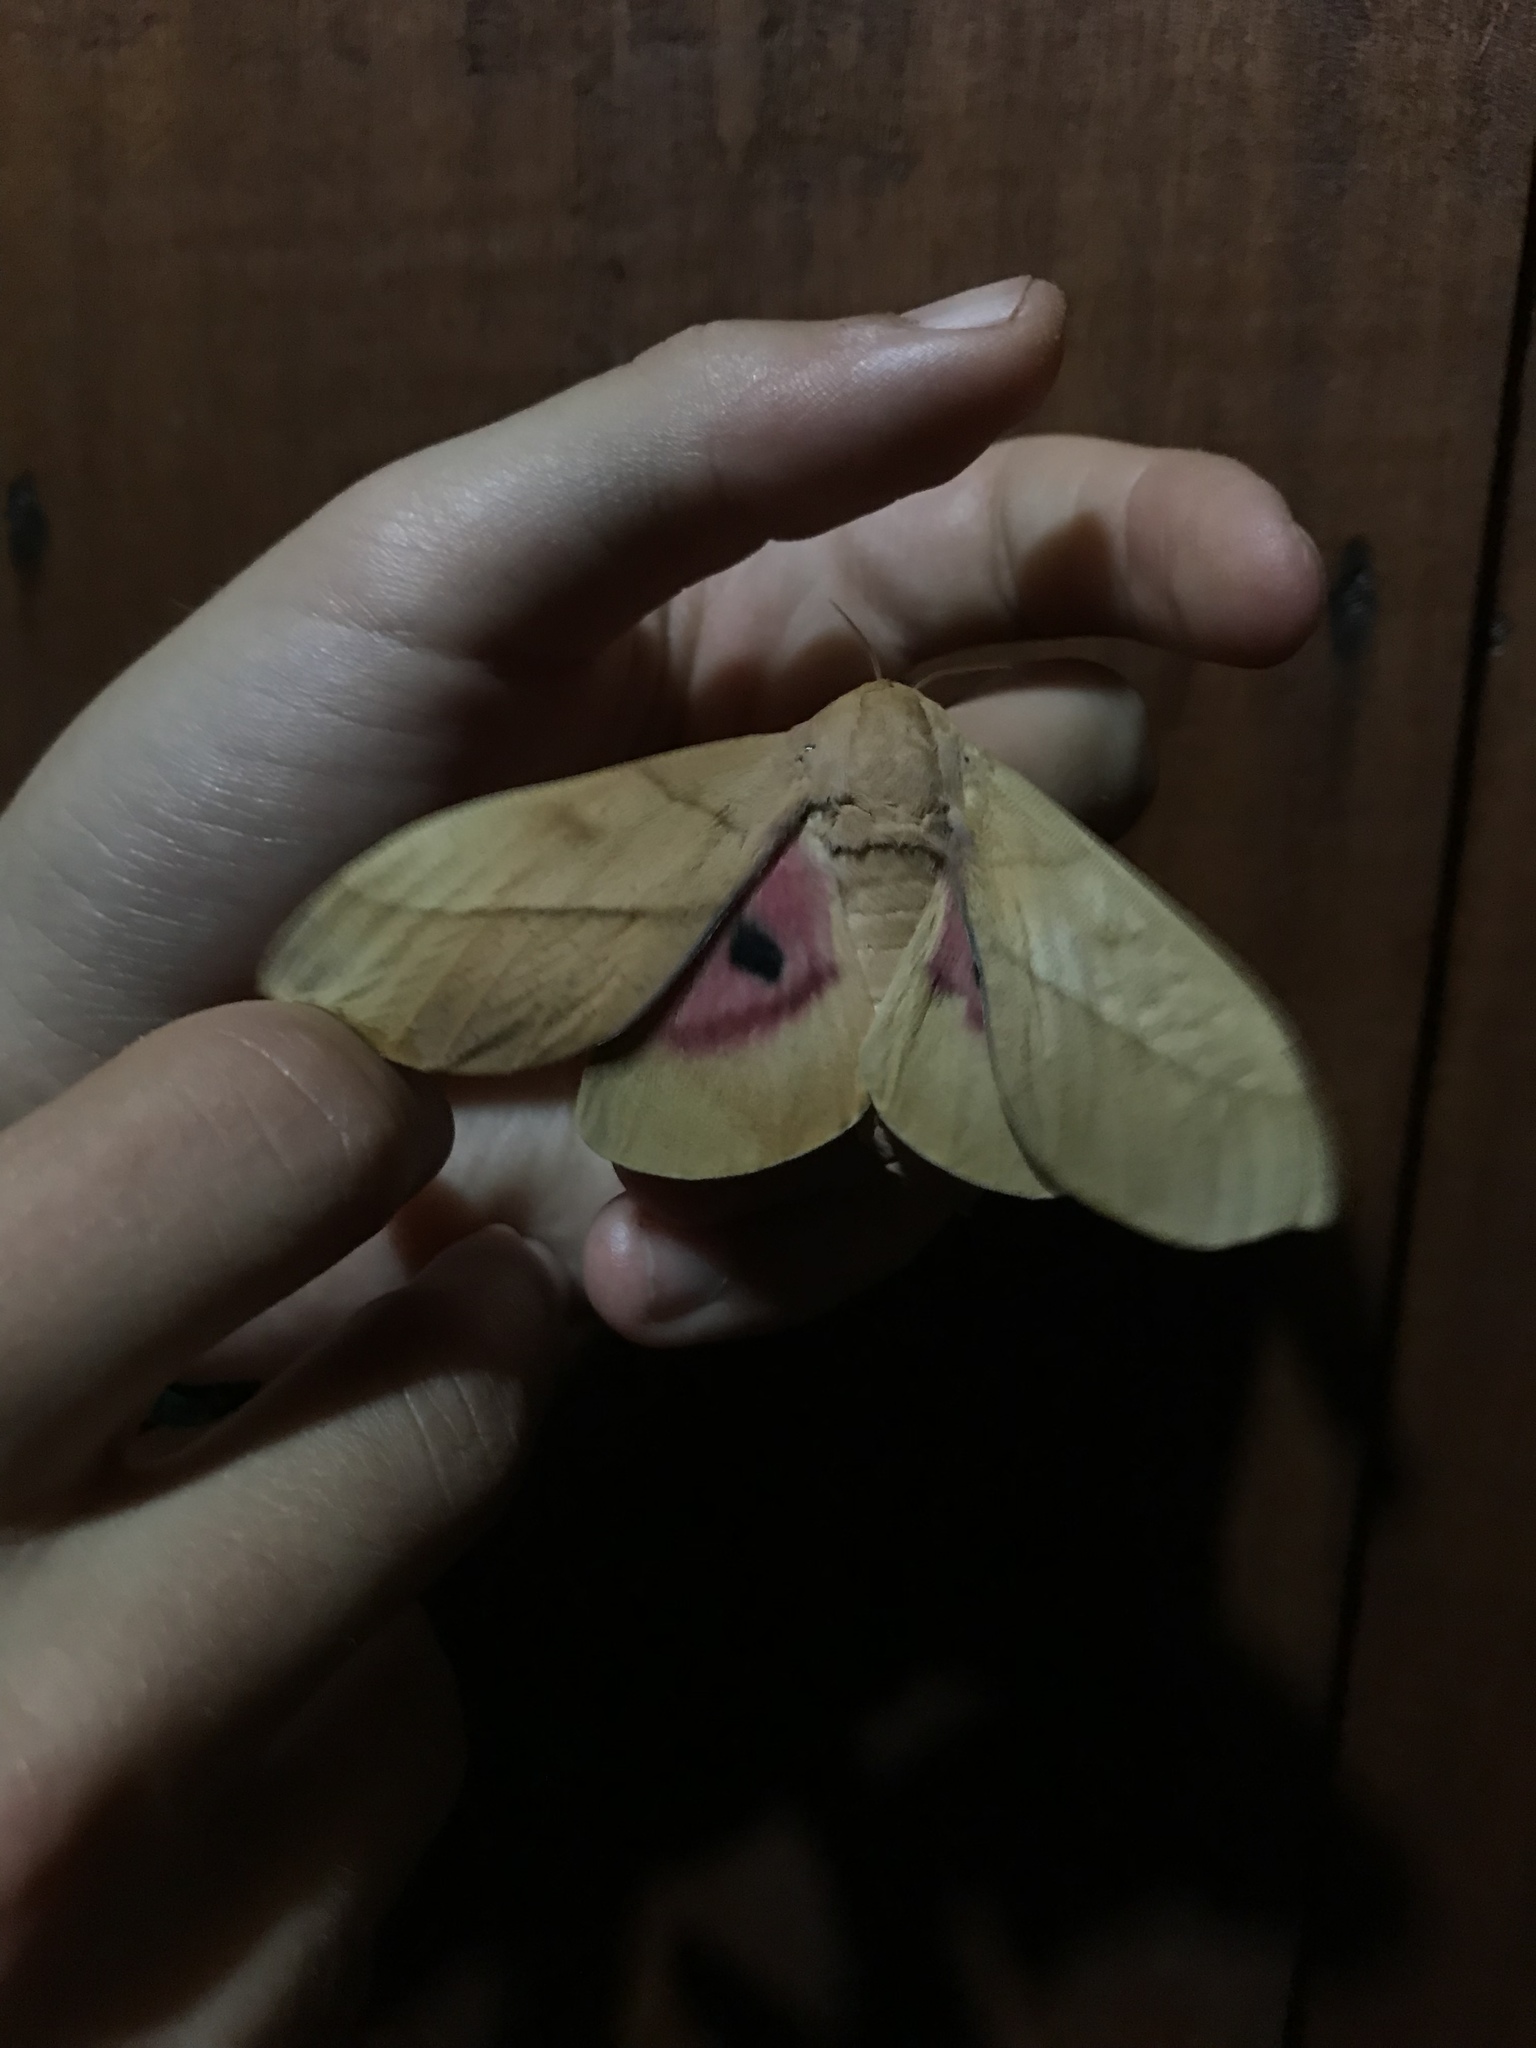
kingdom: Animalia
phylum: Arthropoda
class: Insecta
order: Lepidoptera
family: Saturniidae
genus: Syssphinx
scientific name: Syssphinx molina
